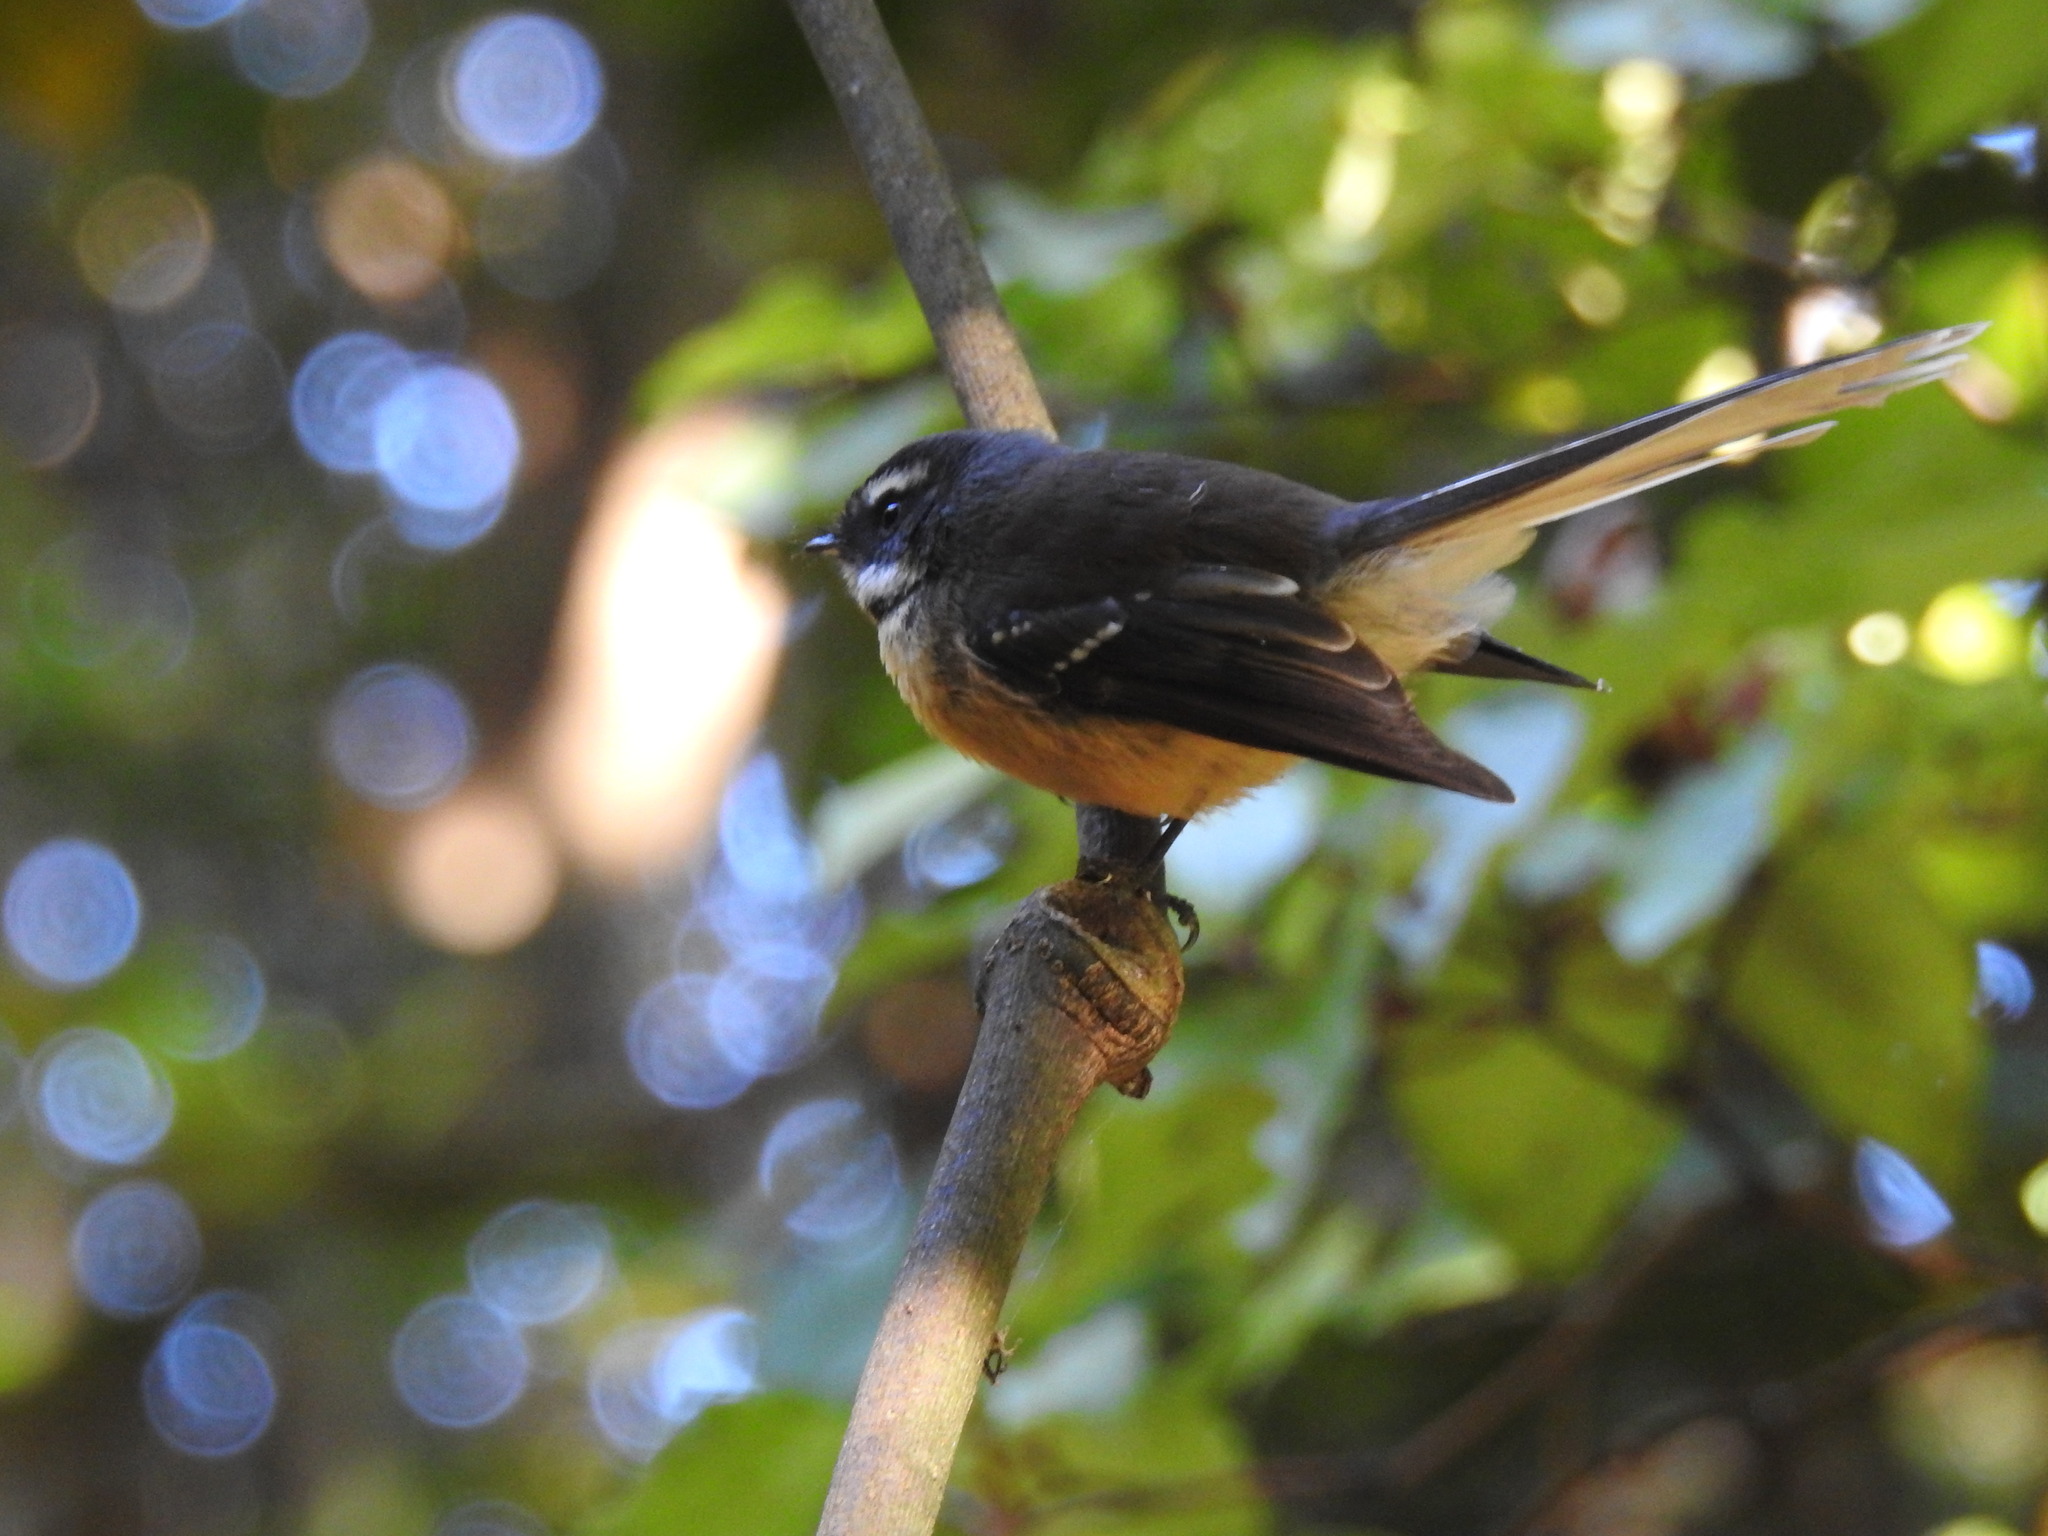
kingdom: Animalia
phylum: Chordata
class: Aves
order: Passeriformes
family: Rhipiduridae
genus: Rhipidura
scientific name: Rhipidura fuliginosa
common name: New zealand fantail
